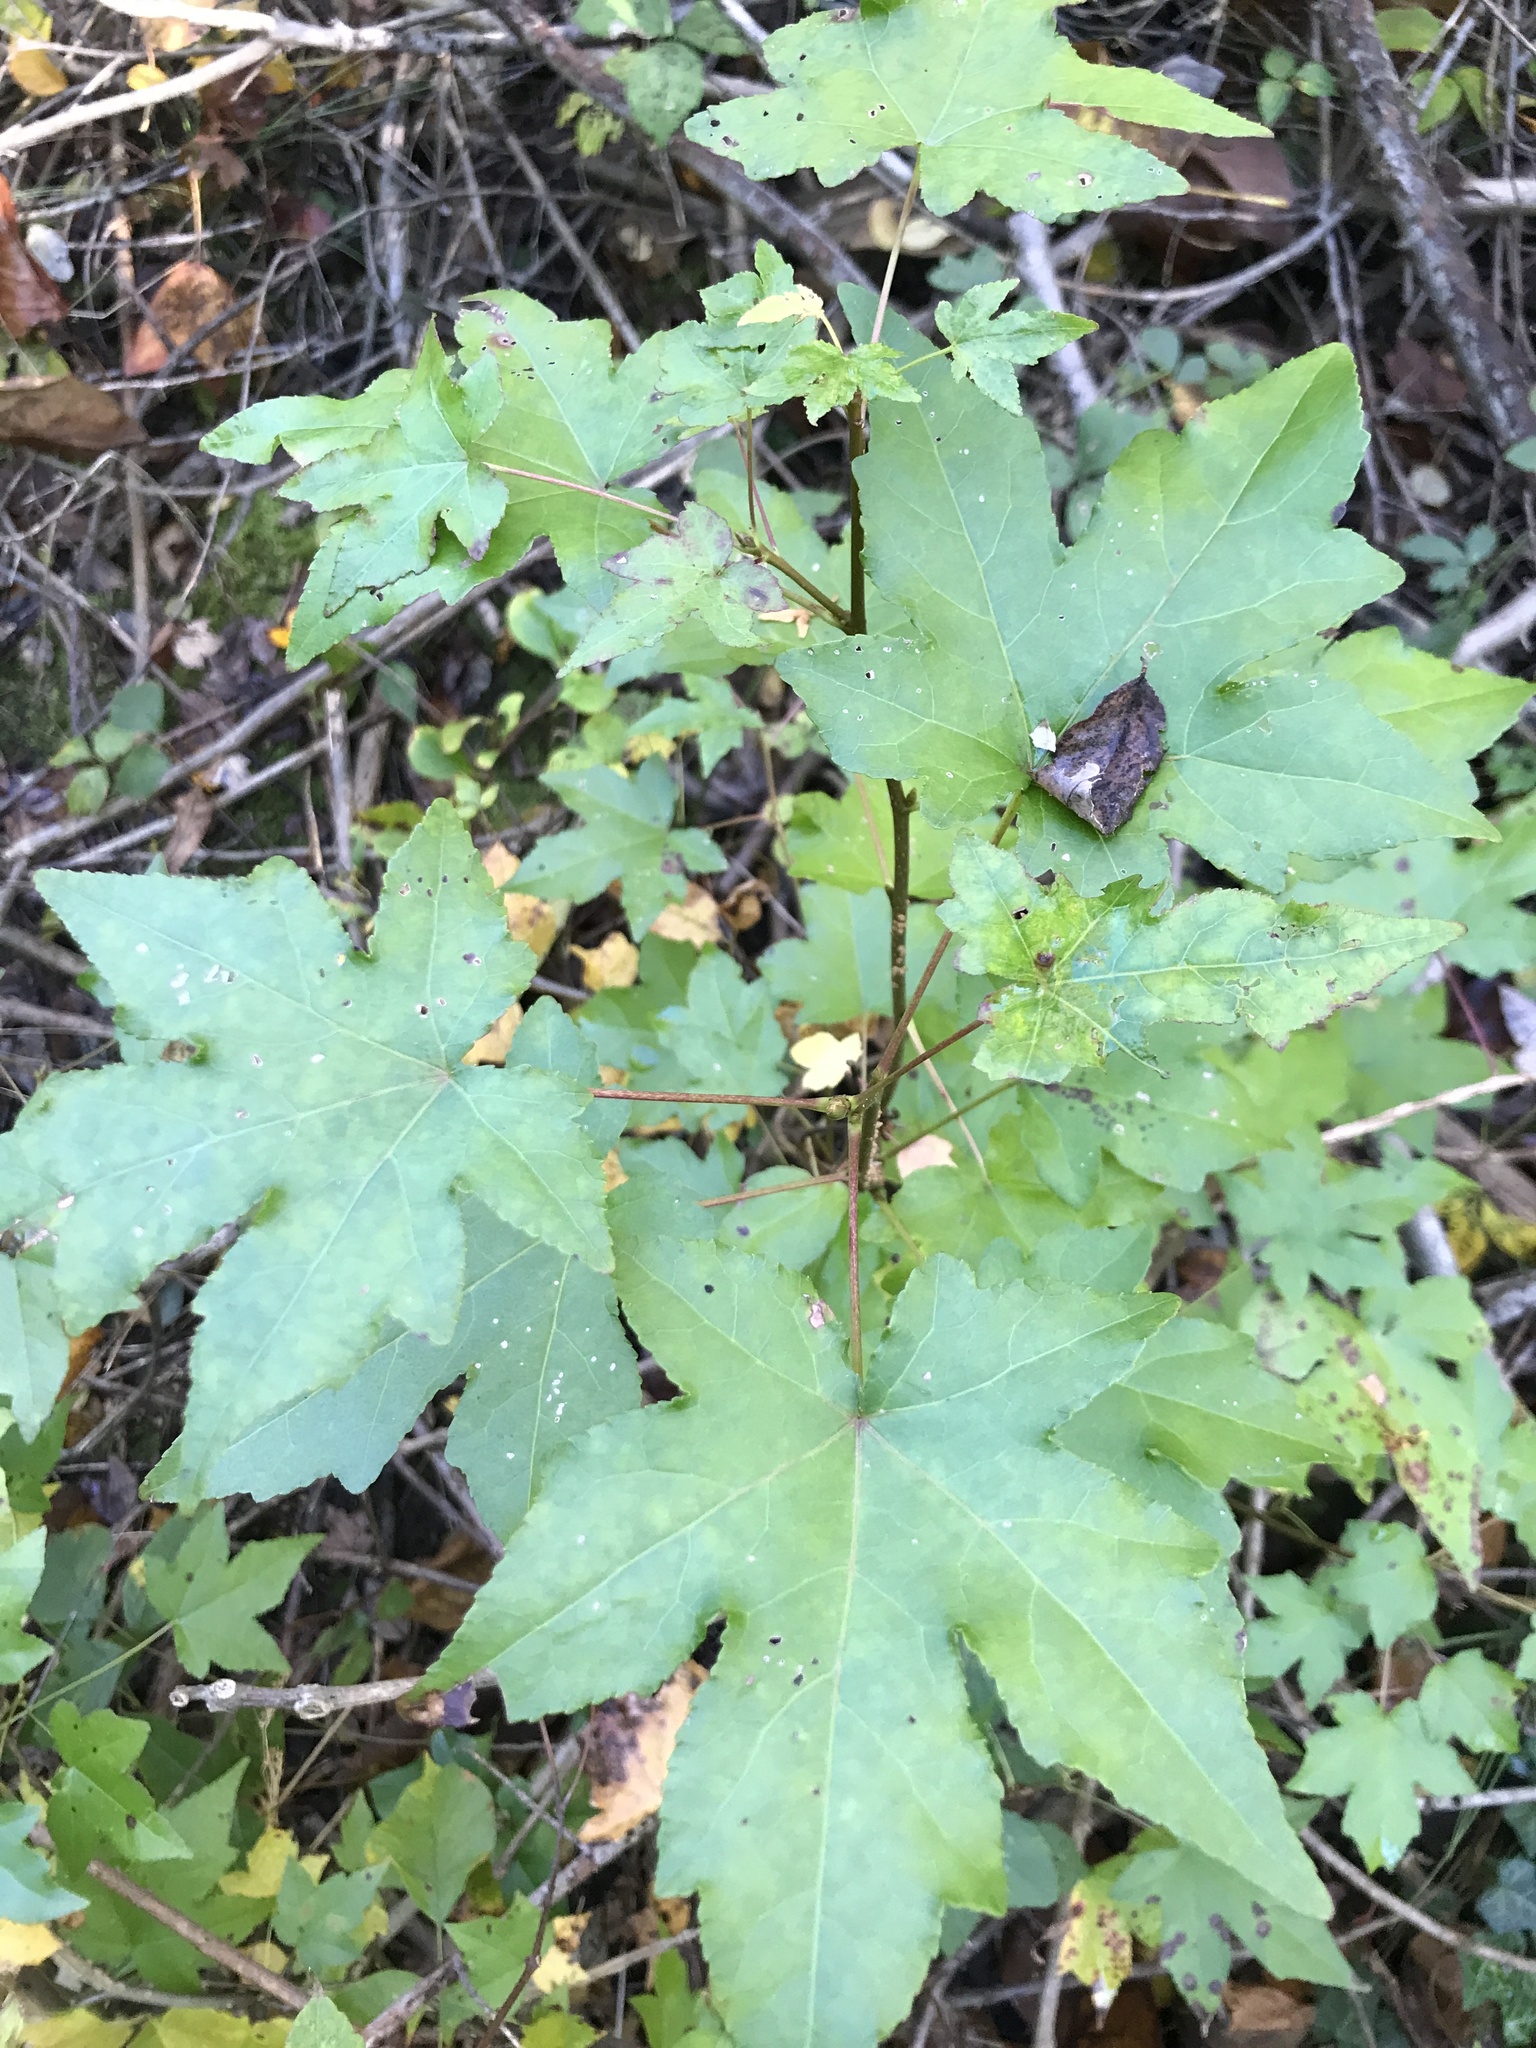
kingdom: Plantae
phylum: Tracheophyta
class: Magnoliopsida
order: Saxifragales
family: Altingiaceae
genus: Liquidambar
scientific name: Liquidambar styraciflua
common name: Sweet gum
